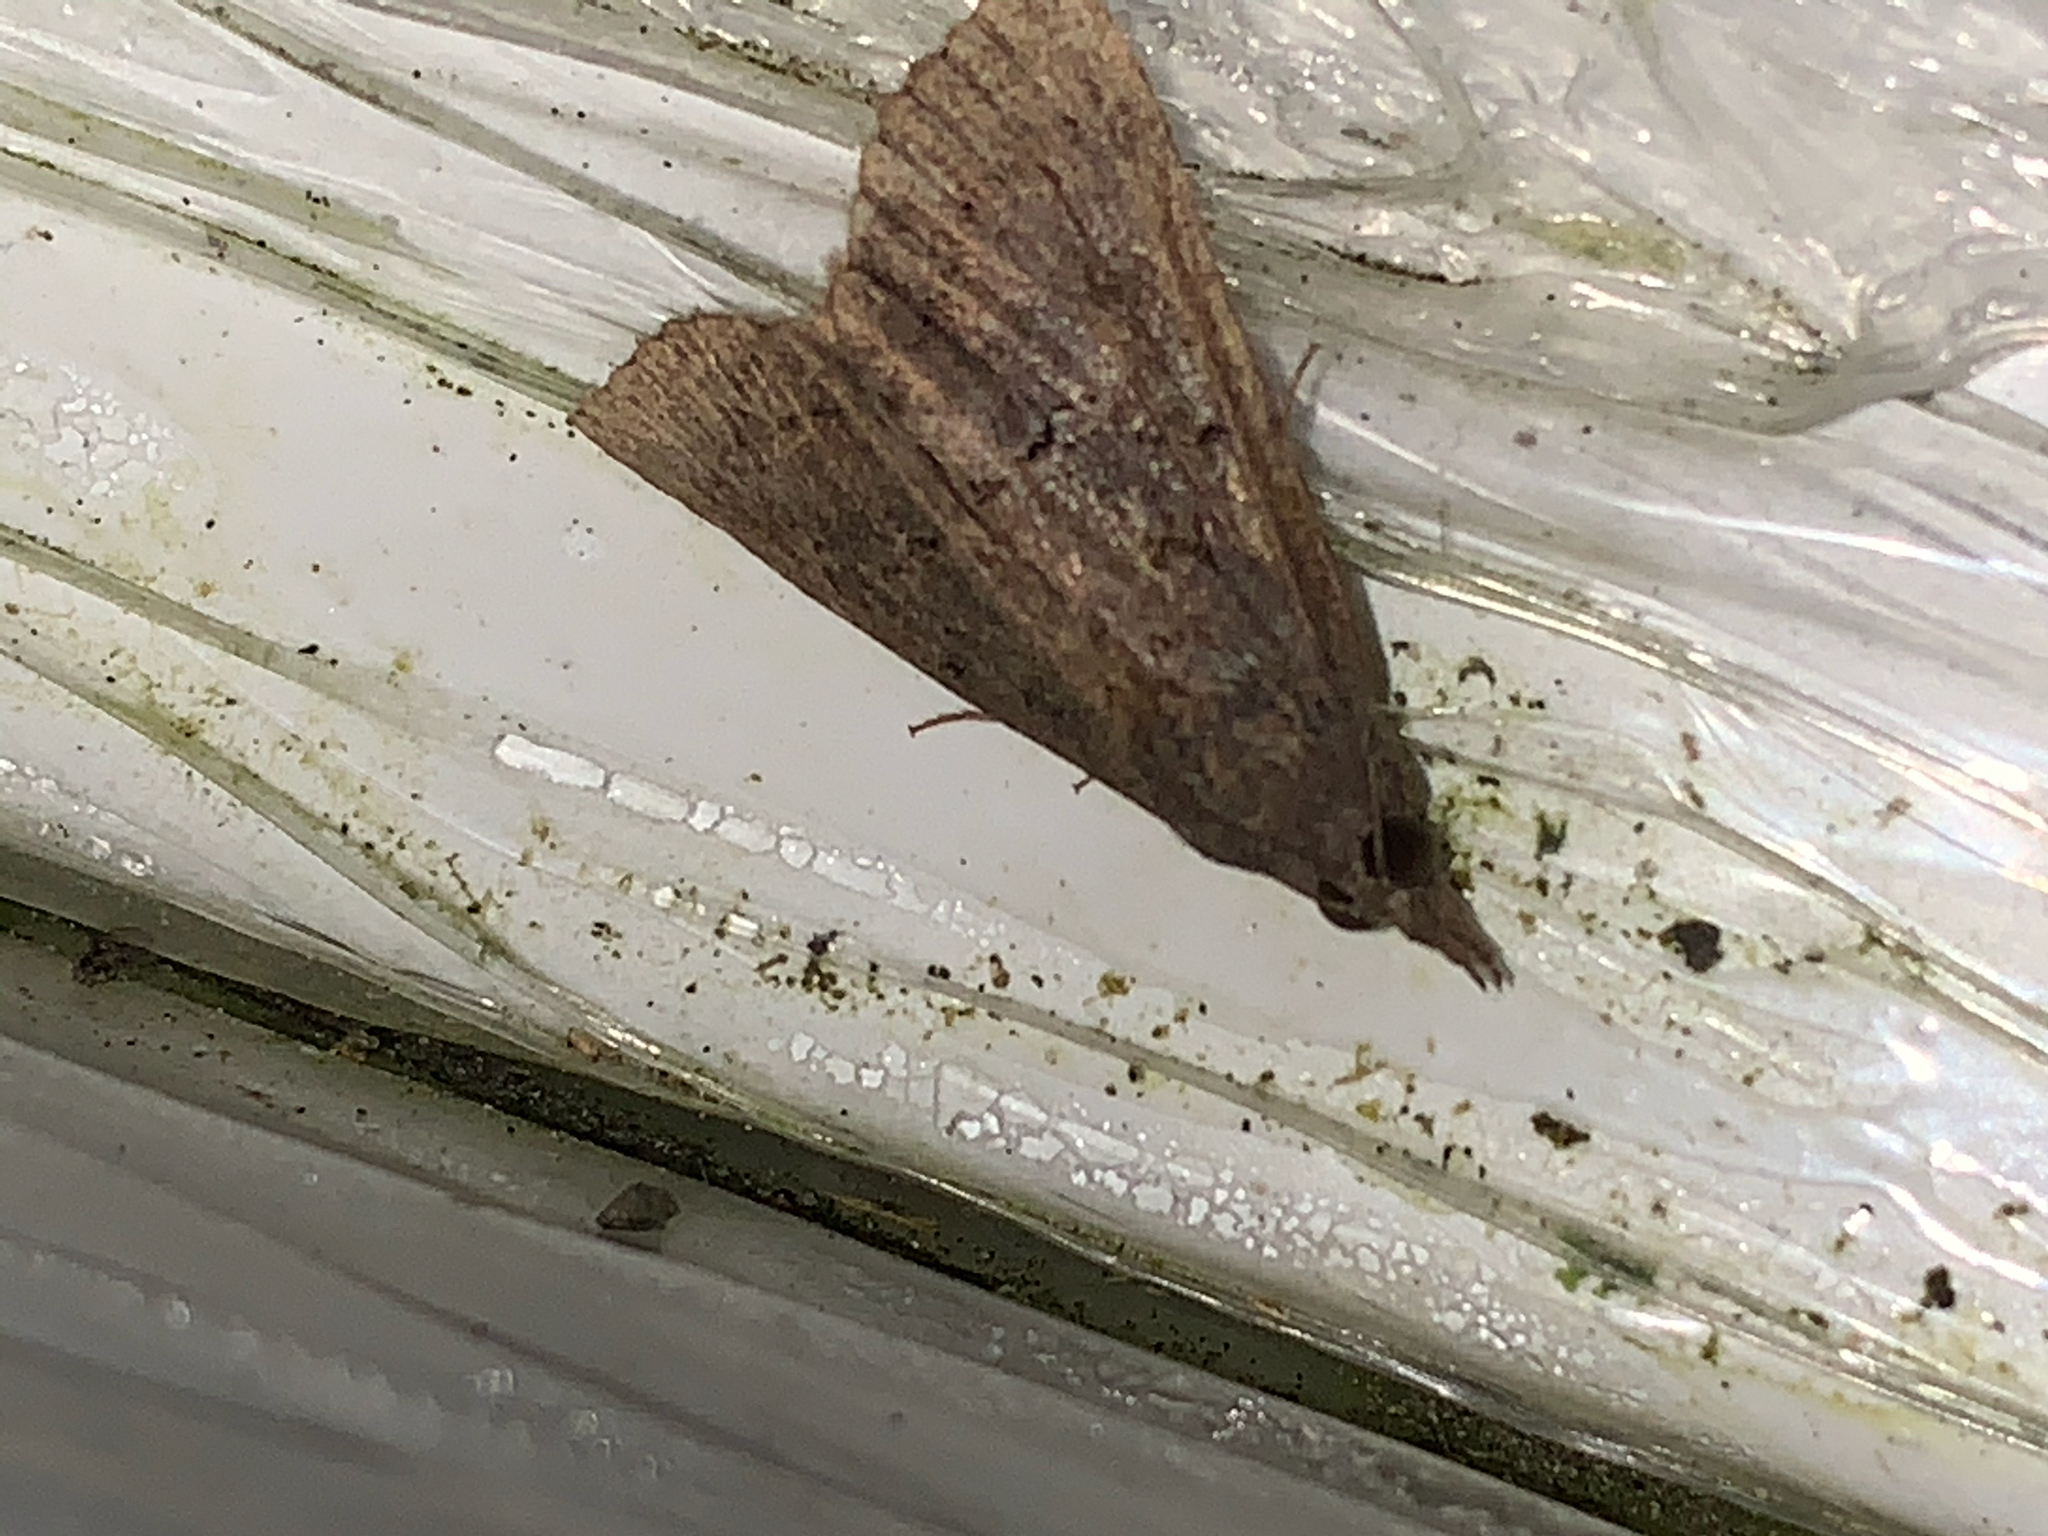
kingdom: Animalia
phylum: Arthropoda
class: Insecta
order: Lepidoptera
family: Erebidae
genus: Hypena
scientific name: Hypena scabra
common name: Green cloverworm
